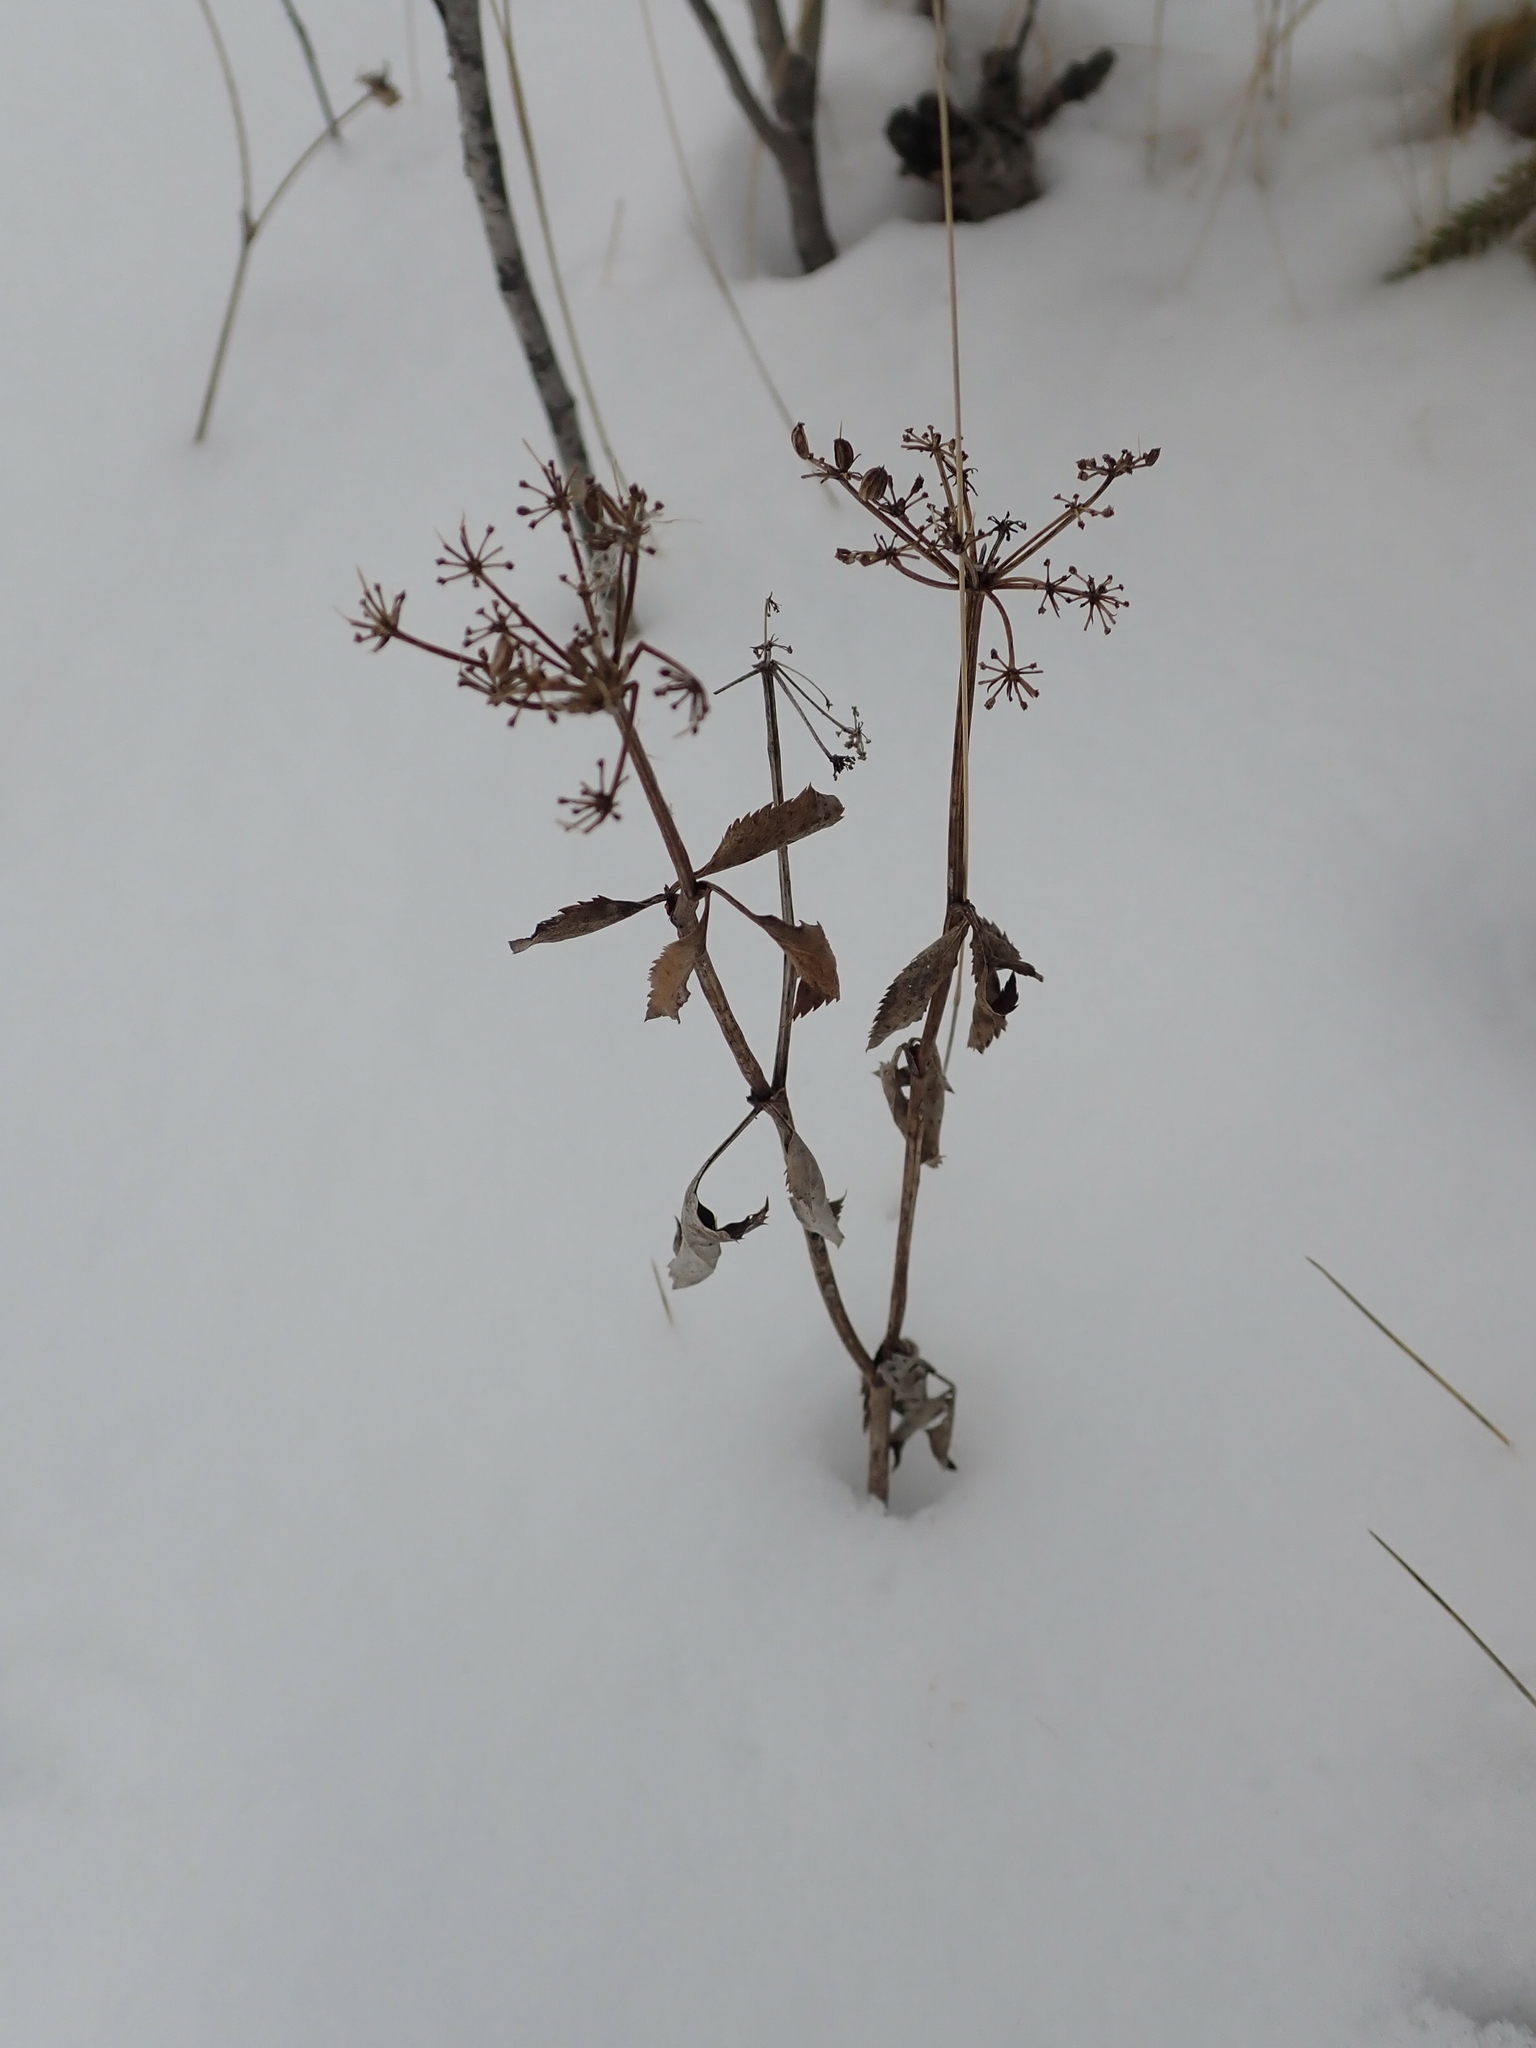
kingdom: Plantae
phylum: Tracheophyta
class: Magnoliopsida
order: Apiales
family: Apiaceae
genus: Zizia
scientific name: Zizia aurea
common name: Golden alexanders
